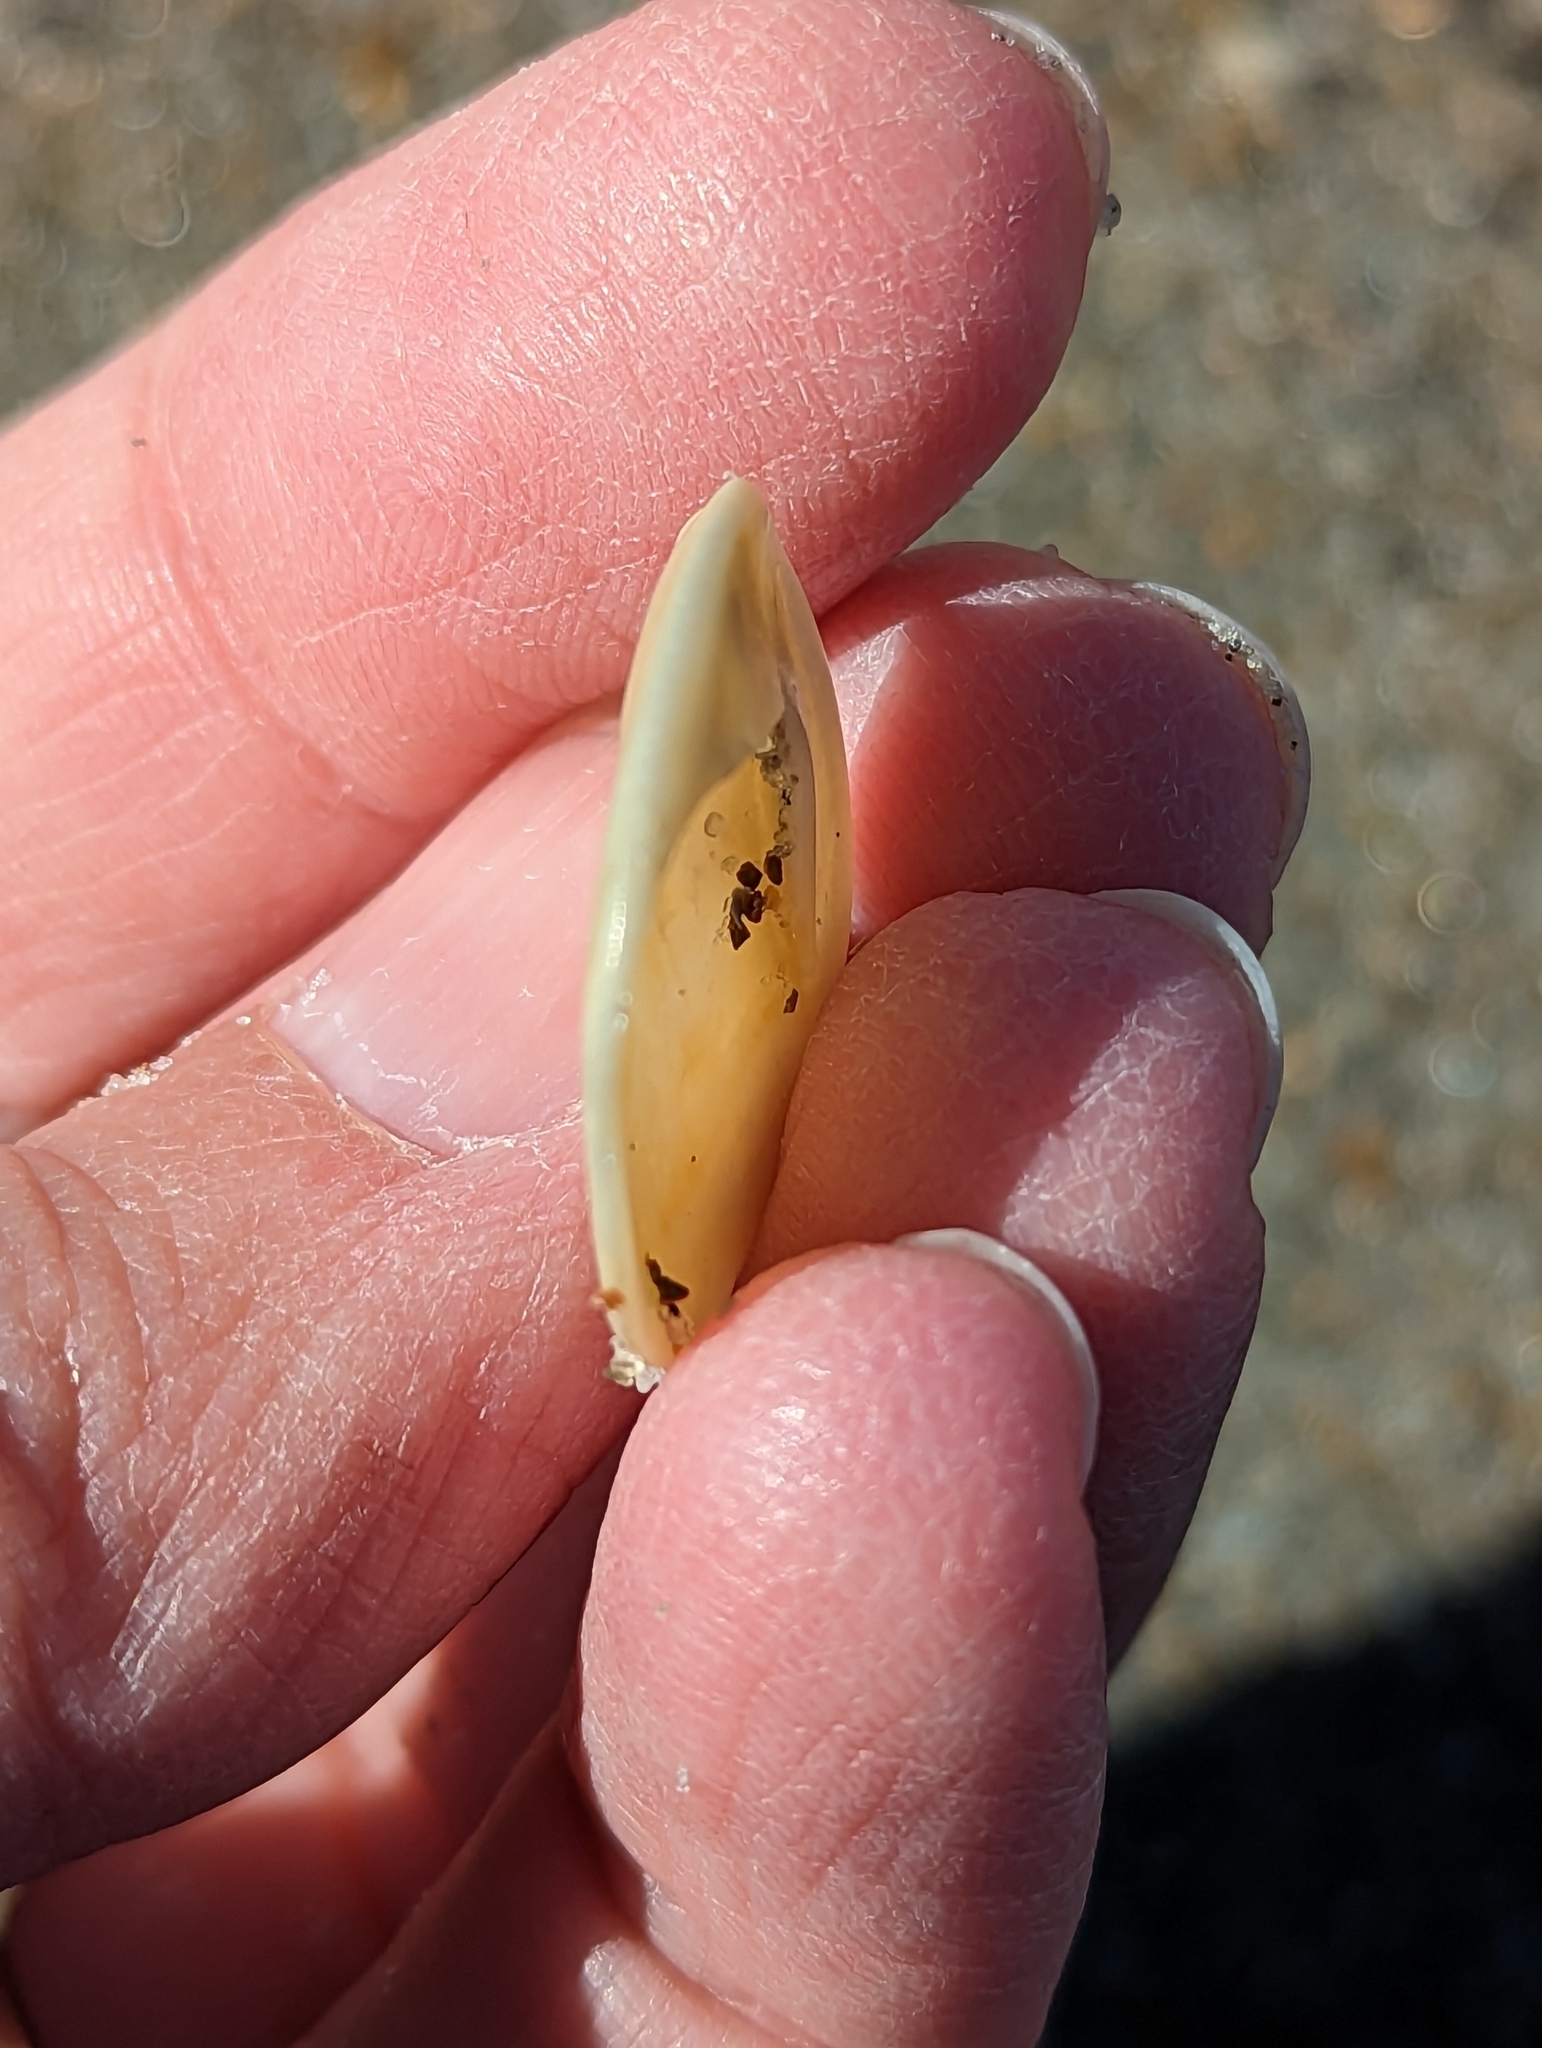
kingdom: Animalia
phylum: Mollusca
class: Gastropoda
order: Littorinimorpha
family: Calyptraeidae
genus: Crepidula
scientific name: Crepidula plana
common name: Eastern white slippersnail
